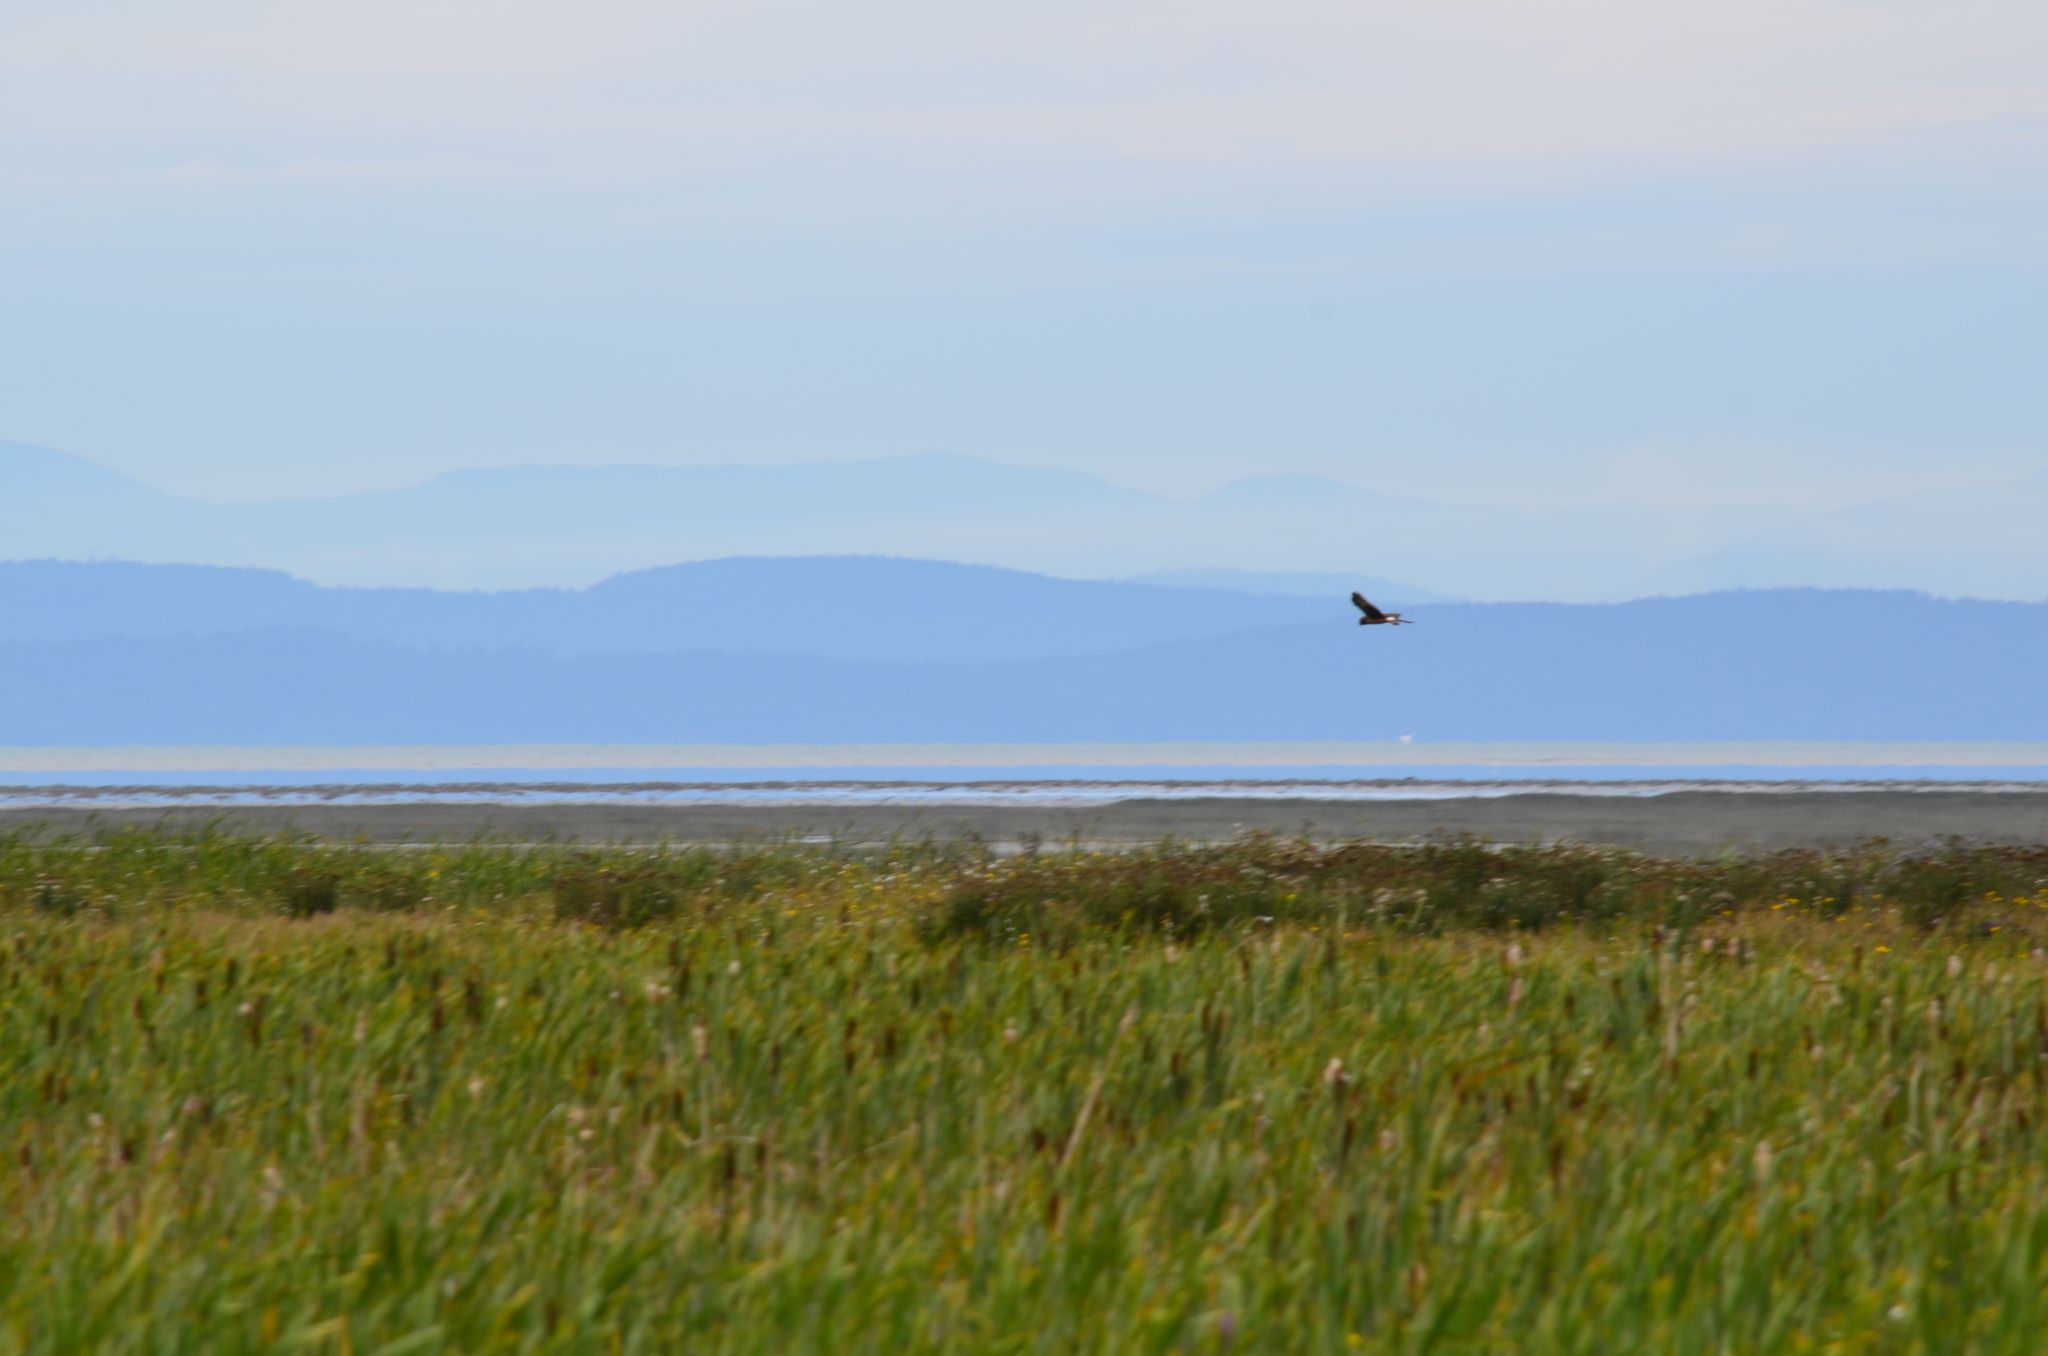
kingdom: Animalia
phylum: Chordata
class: Aves
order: Accipitriformes
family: Accipitridae
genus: Circus
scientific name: Circus cyaneus
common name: Hen harrier
